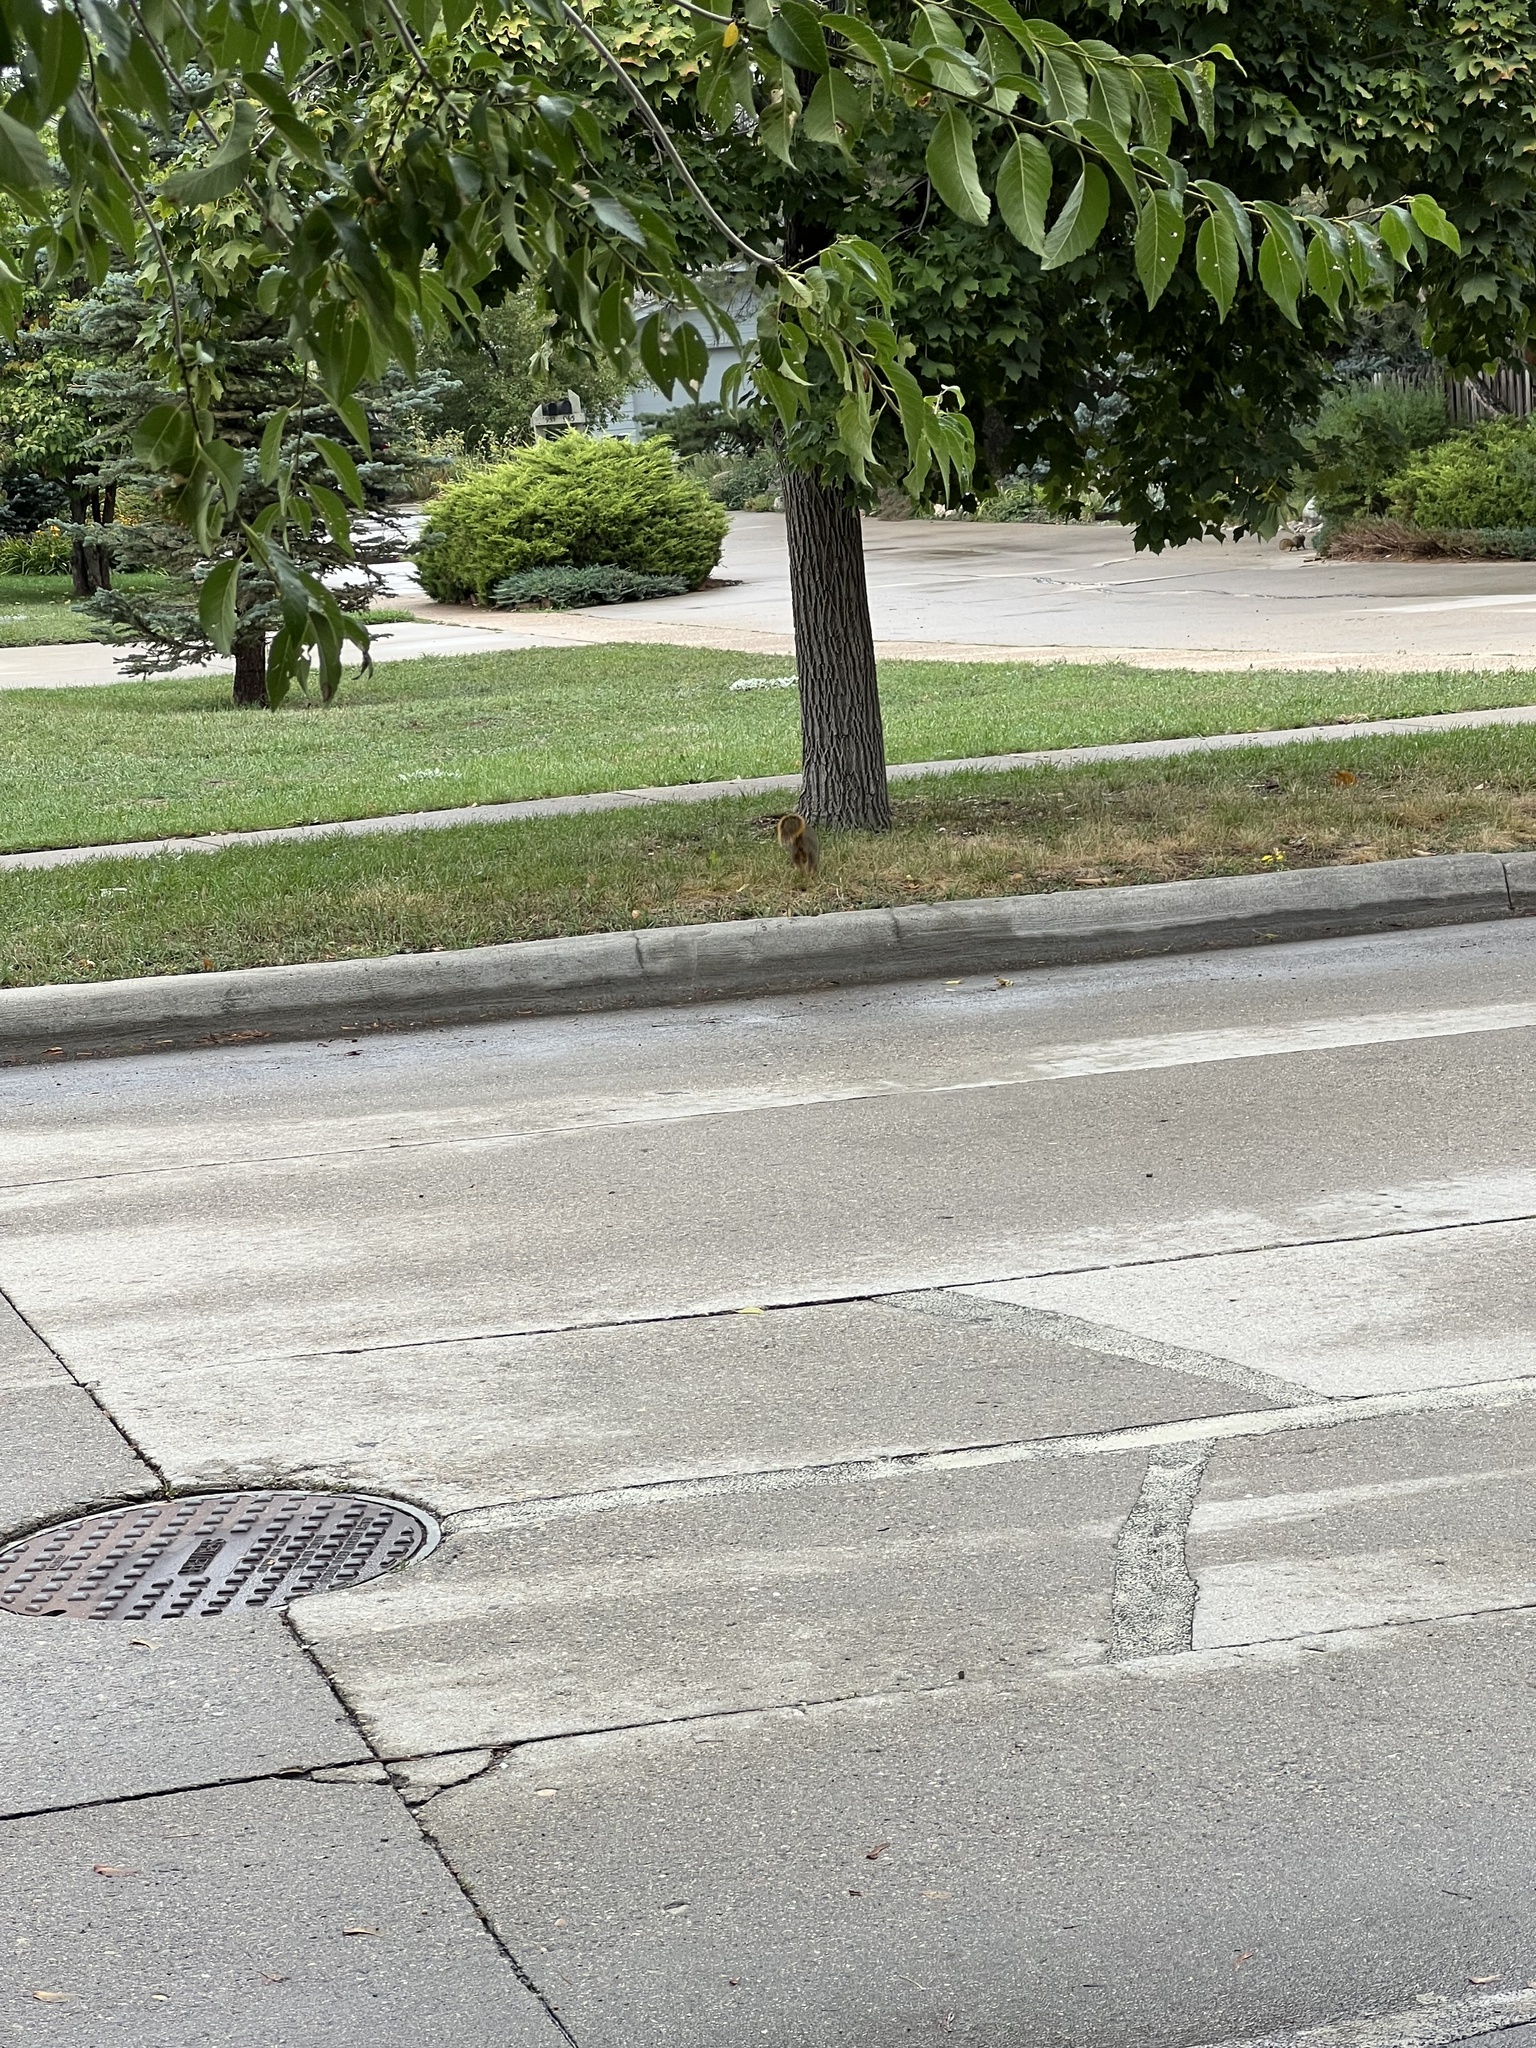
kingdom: Animalia
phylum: Chordata
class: Mammalia
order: Rodentia
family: Sciuridae
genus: Sciurus
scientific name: Sciurus niger
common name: Fox squirrel
